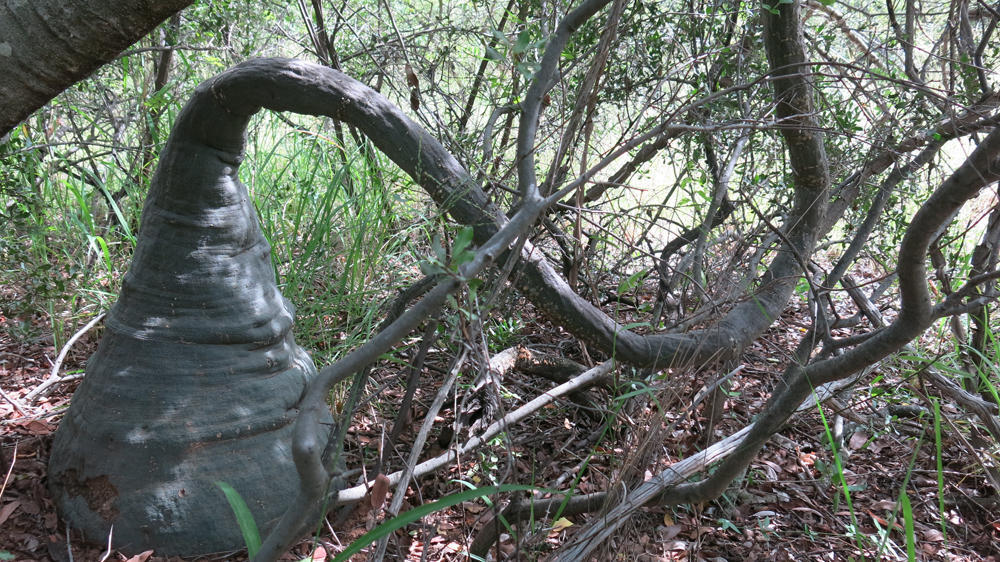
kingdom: Plantae
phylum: Tracheophyta
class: Magnoliopsida
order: Malpighiales
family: Passifloraceae
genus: Adenia
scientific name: Adenia glauca
